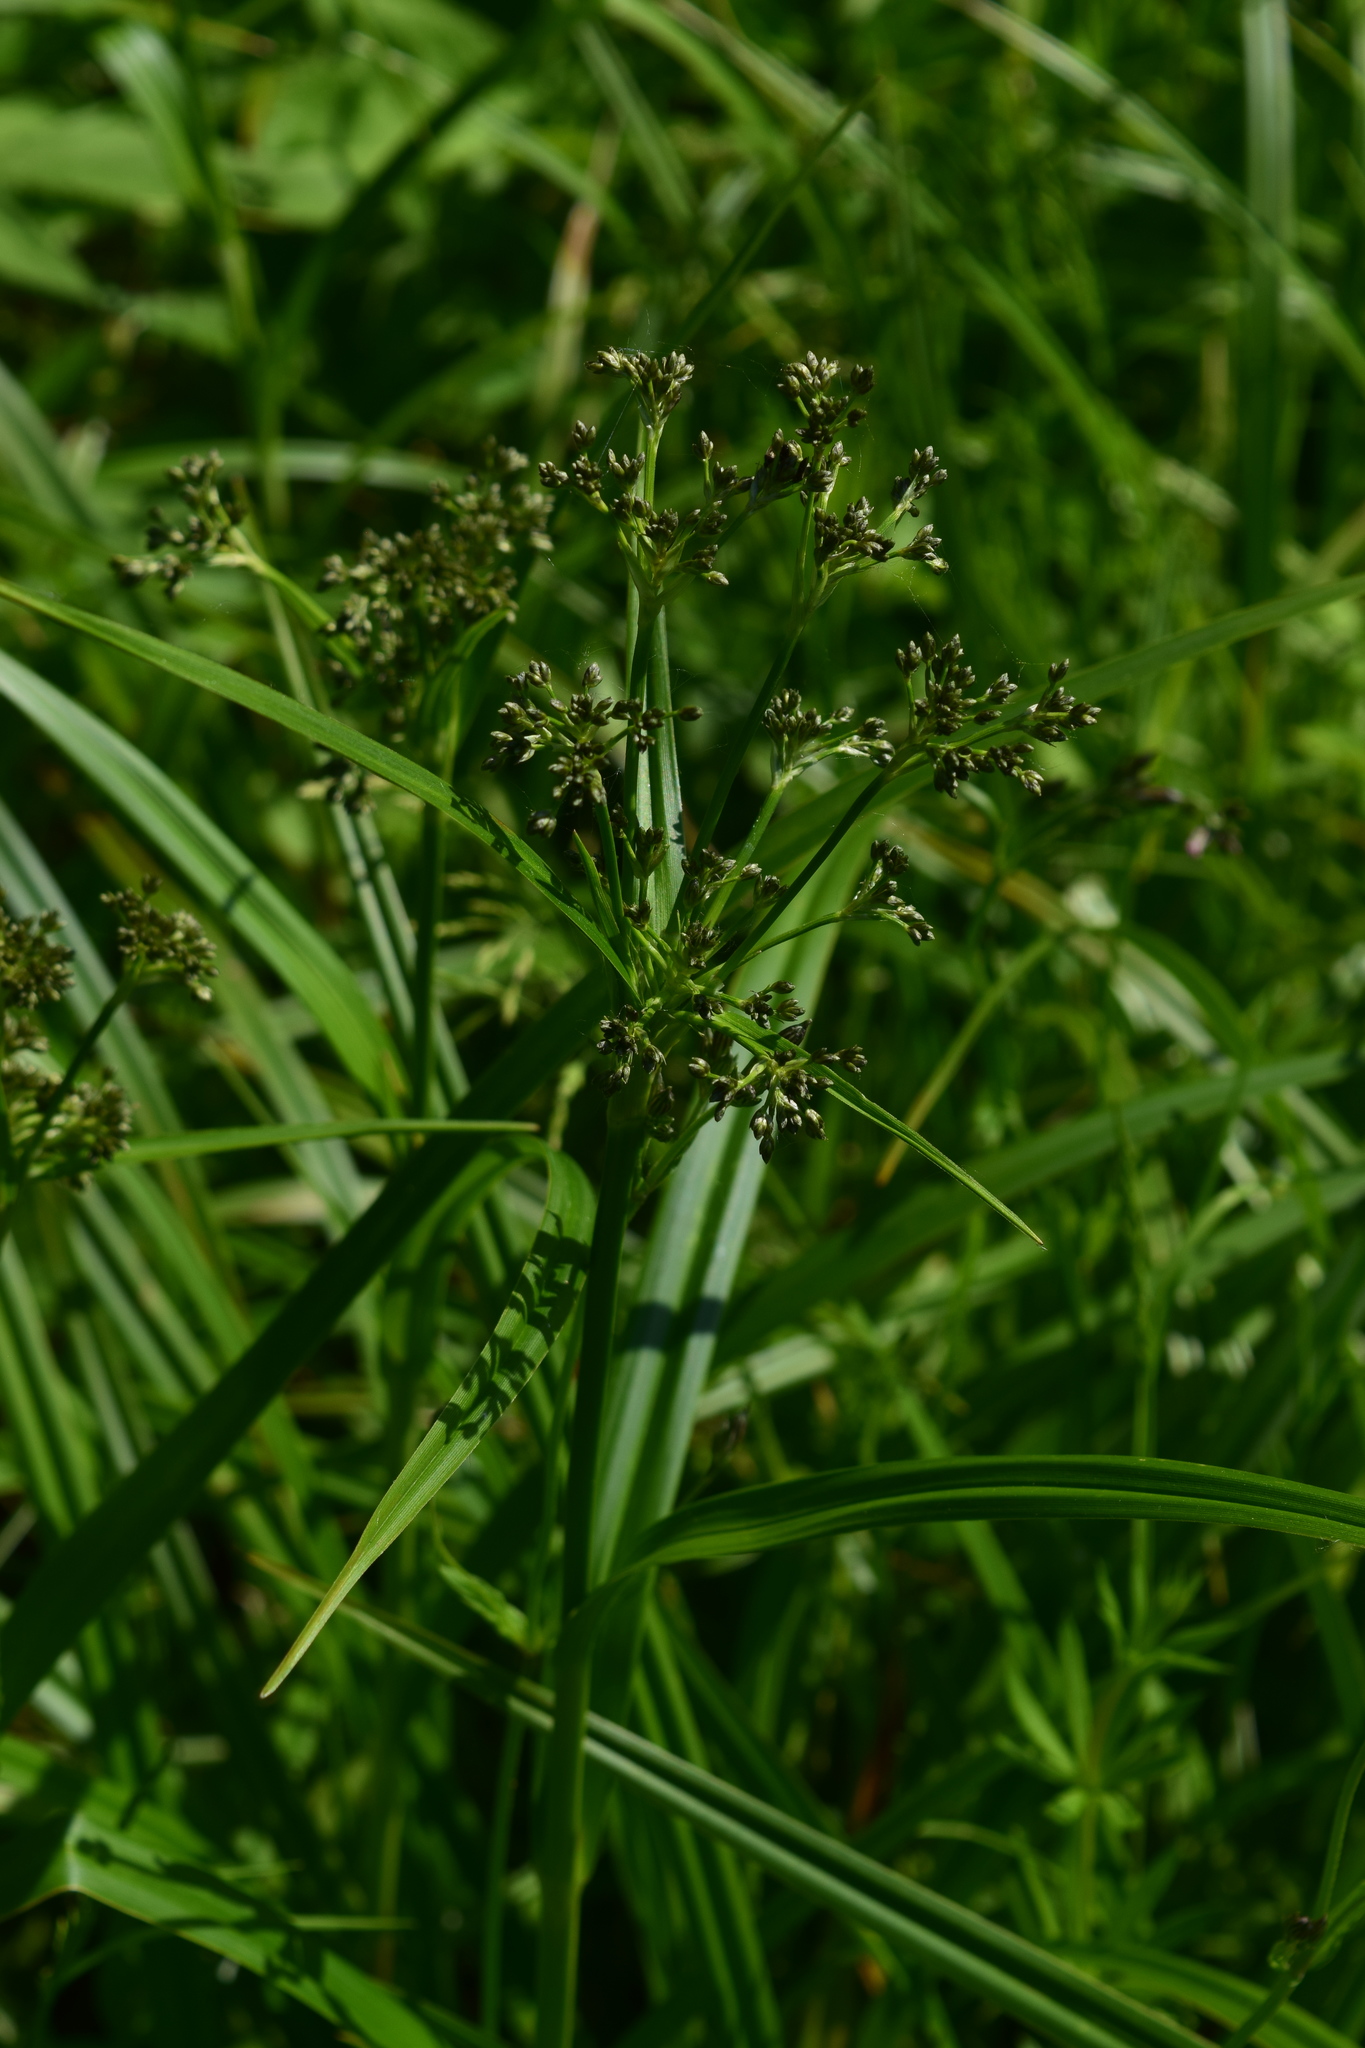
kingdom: Plantae
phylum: Tracheophyta
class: Liliopsida
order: Poales
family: Cyperaceae
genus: Scirpus
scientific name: Scirpus sylvaticus
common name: Wood club-rush
